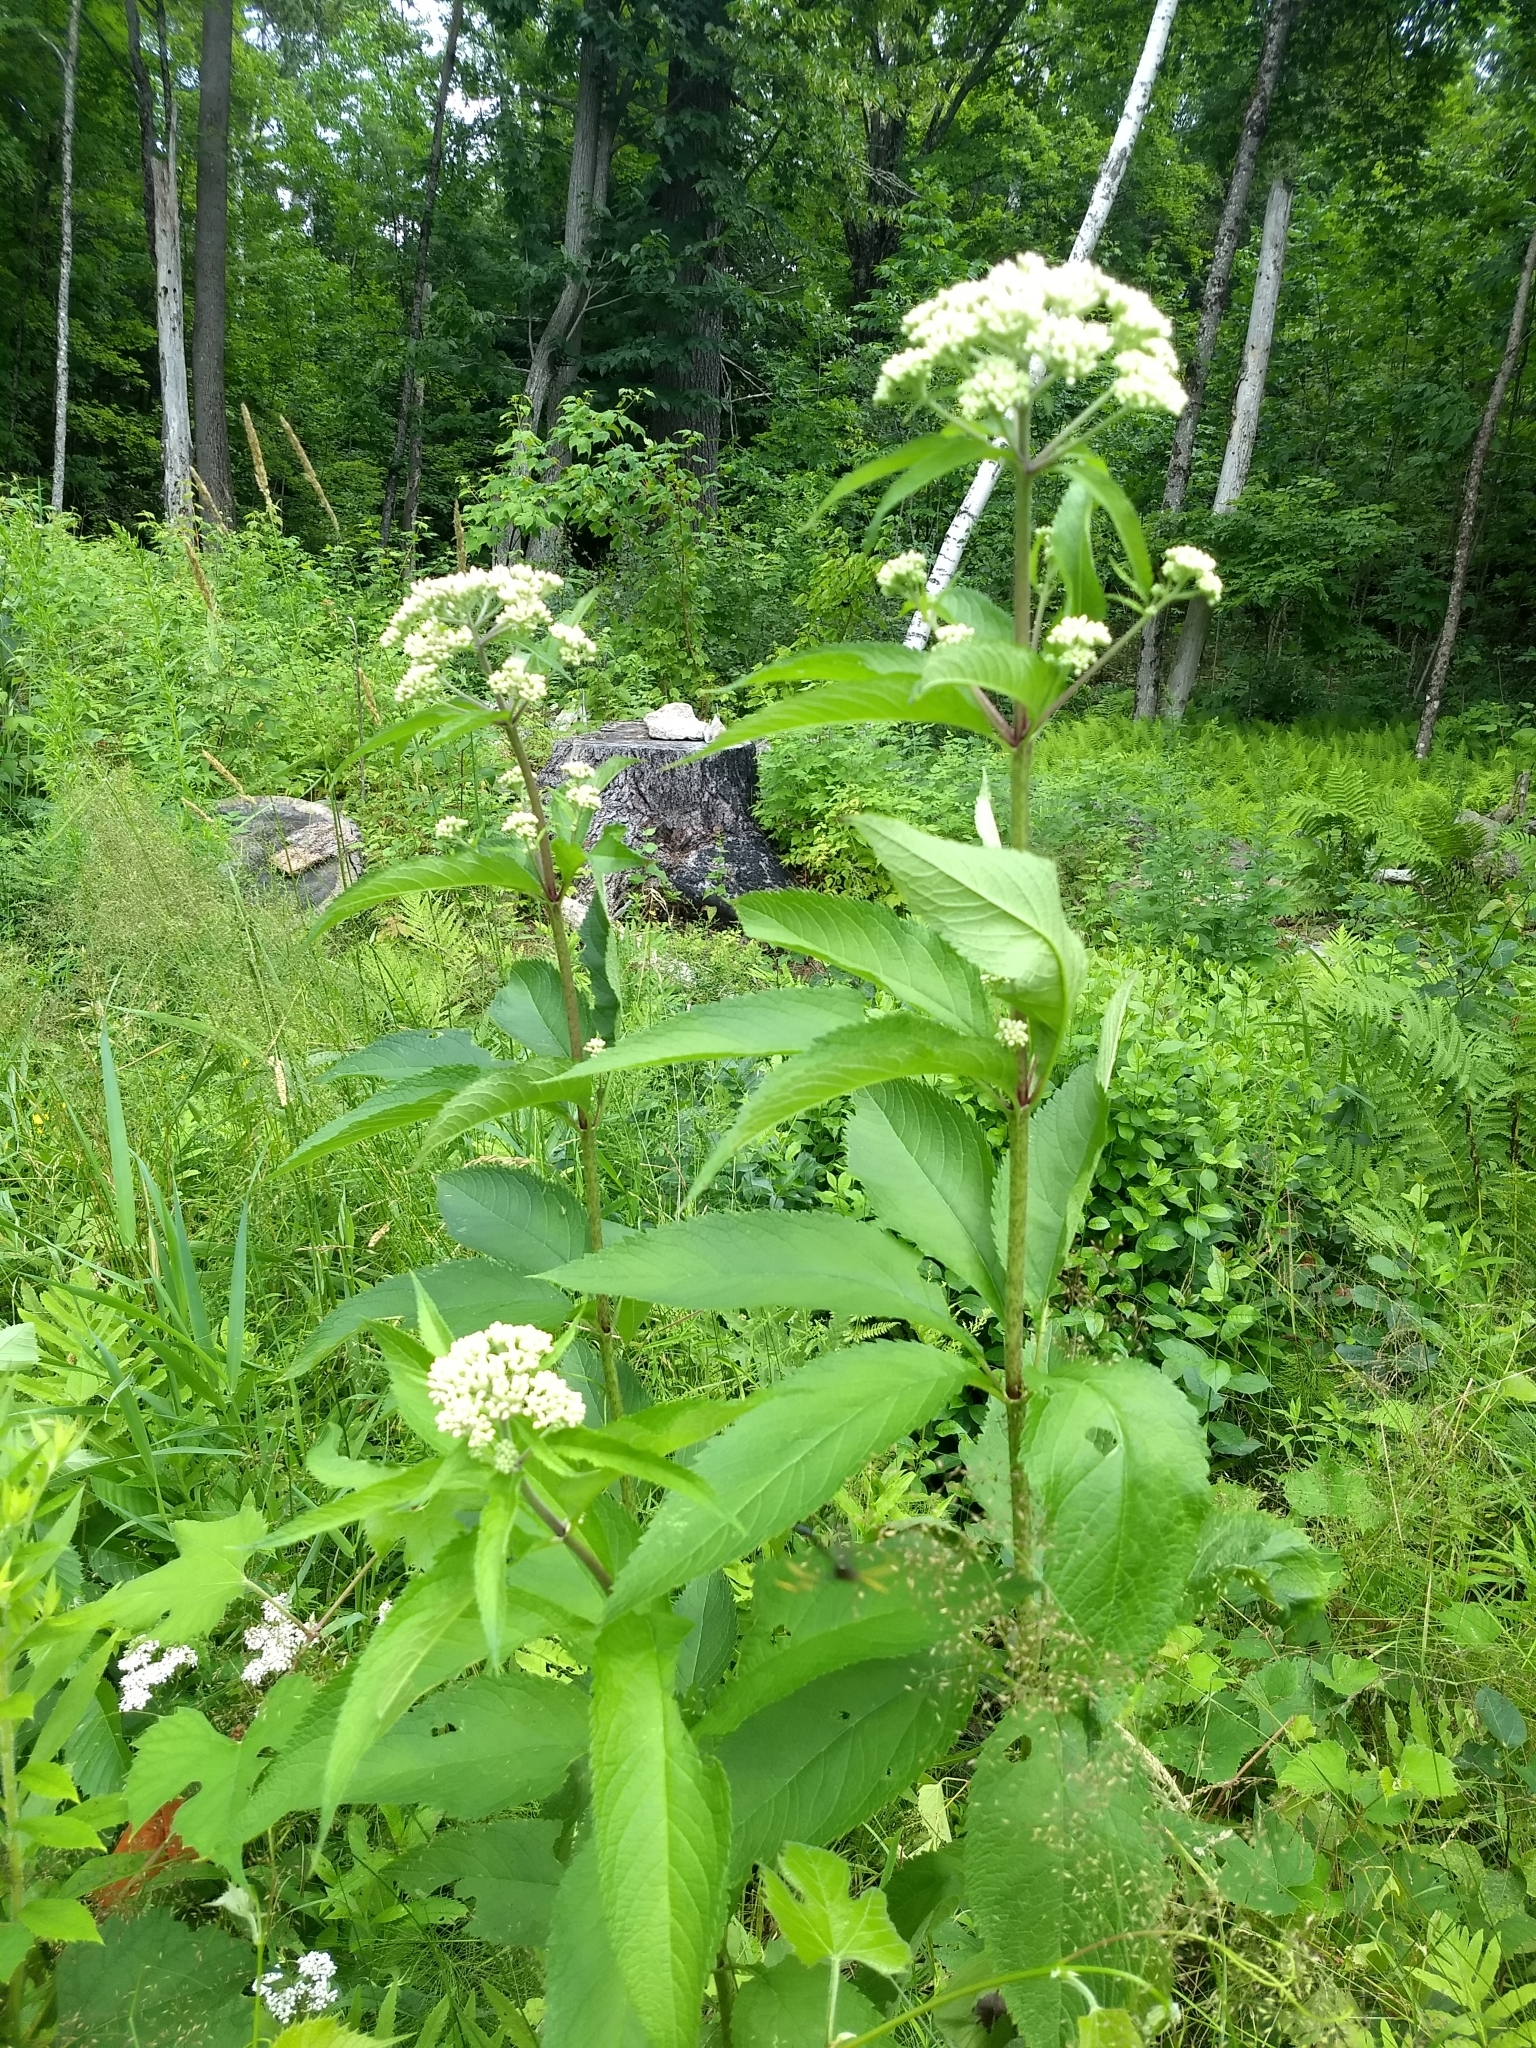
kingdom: Plantae
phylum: Tracheophyta
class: Magnoliopsida
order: Asterales
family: Asteraceae
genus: Eutrochium
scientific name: Eutrochium maculatum
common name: Spotted joe pye weed
